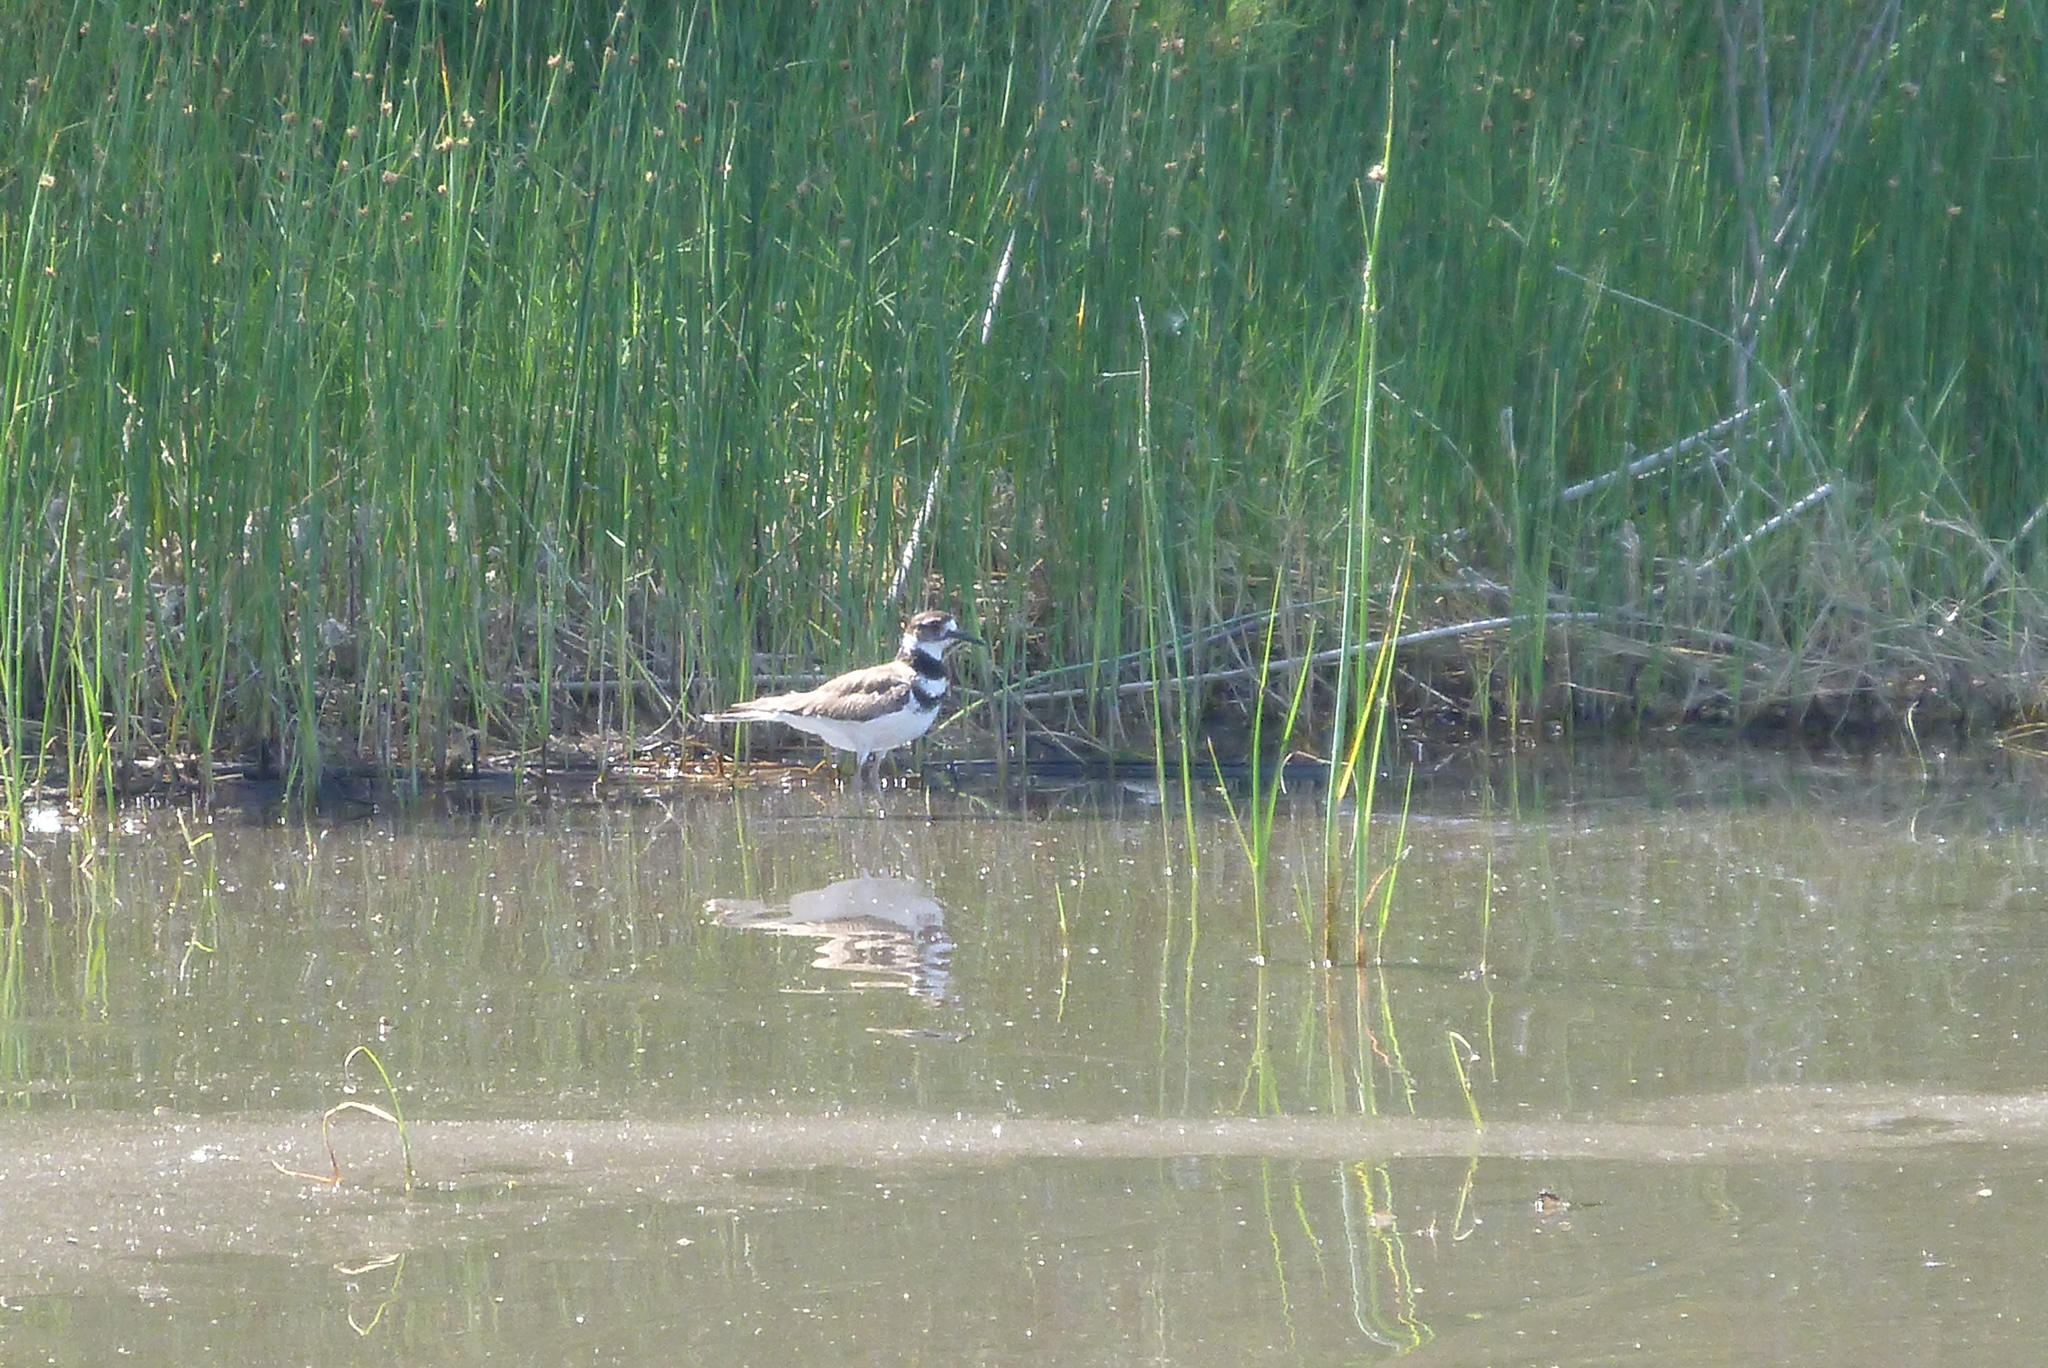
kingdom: Animalia
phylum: Chordata
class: Aves
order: Charadriiformes
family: Charadriidae
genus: Charadrius
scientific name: Charadrius vociferus
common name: Killdeer
